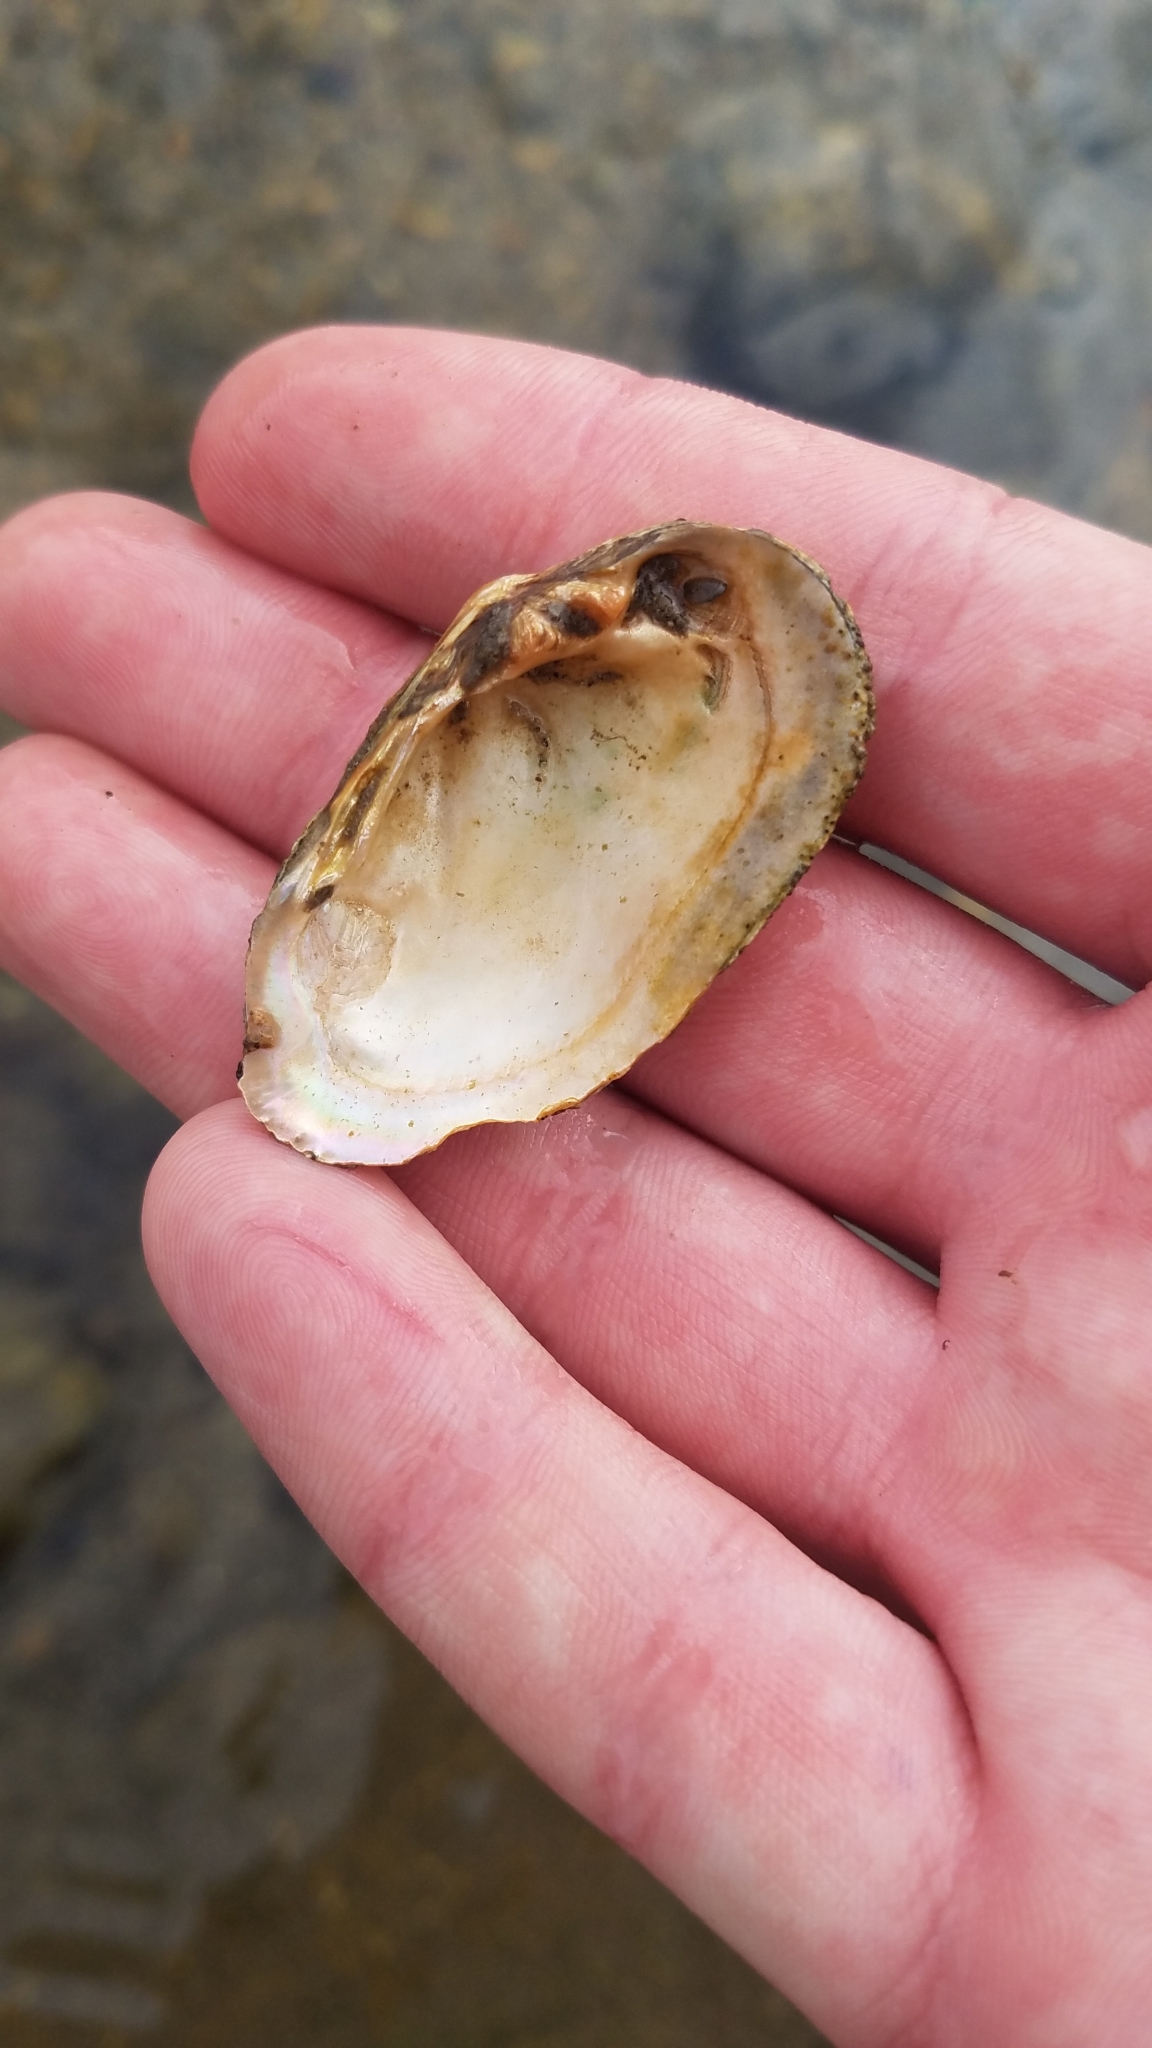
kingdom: Animalia
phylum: Mollusca
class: Bivalvia
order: Unionida
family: Unionidae
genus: Venustaconcha
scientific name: Venustaconcha ellipsiformis
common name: Ellipse
